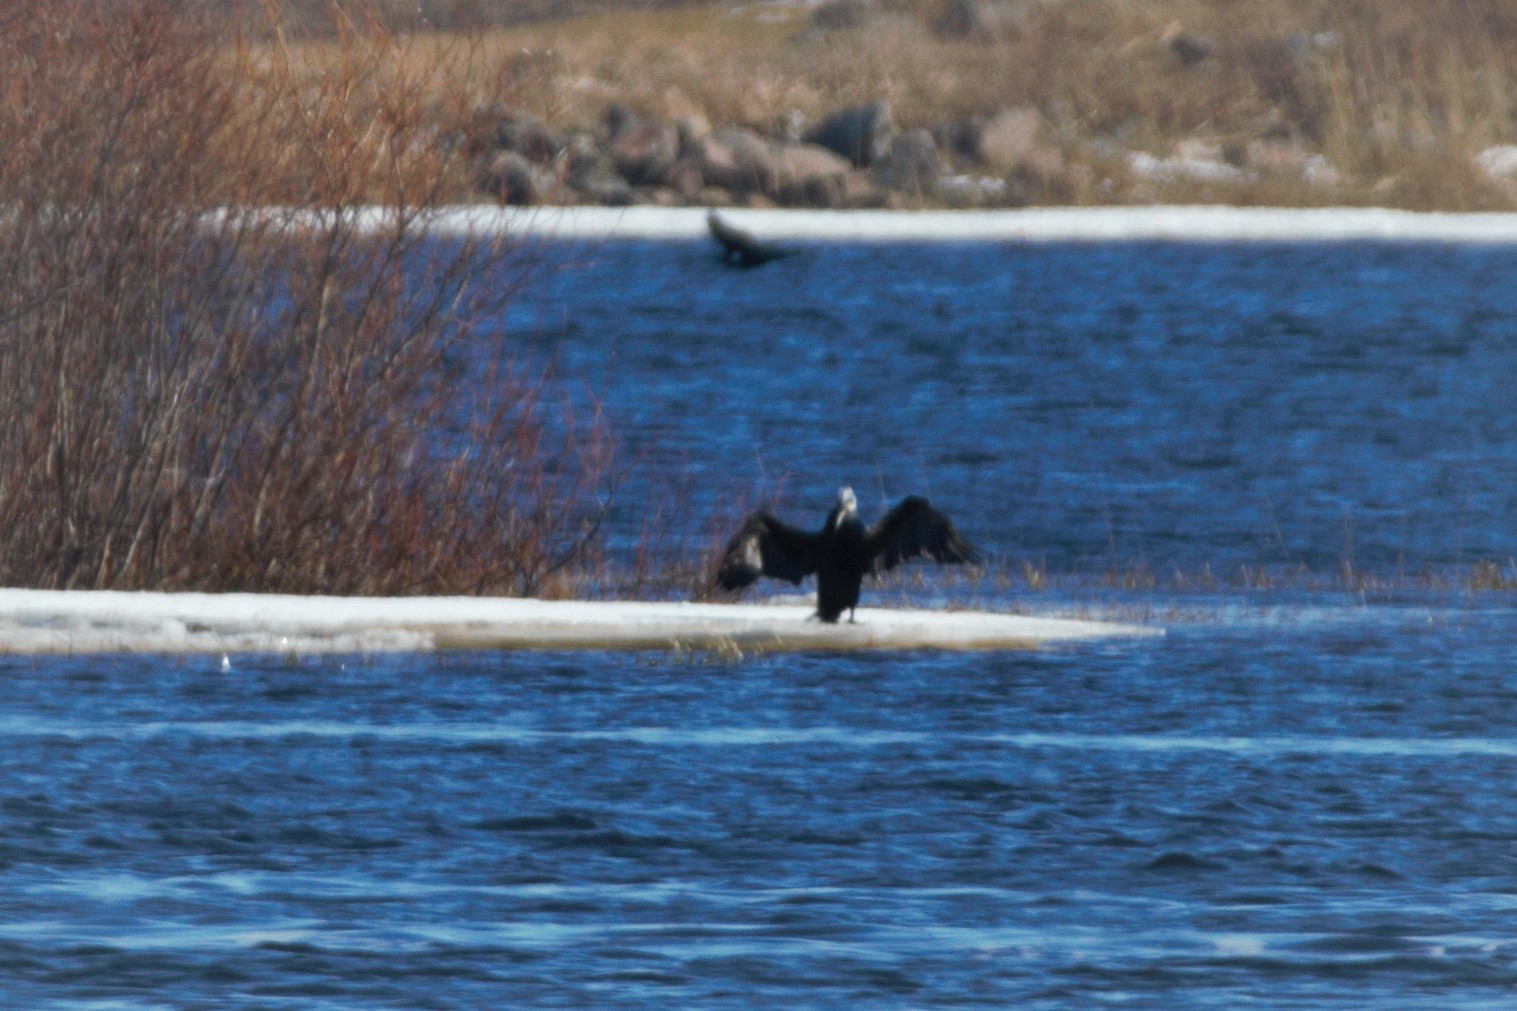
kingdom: Animalia
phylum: Chordata
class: Aves
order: Suliformes
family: Phalacrocoracidae
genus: Phalacrocorax
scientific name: Phalacrocorax carbo
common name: Great cormorant
